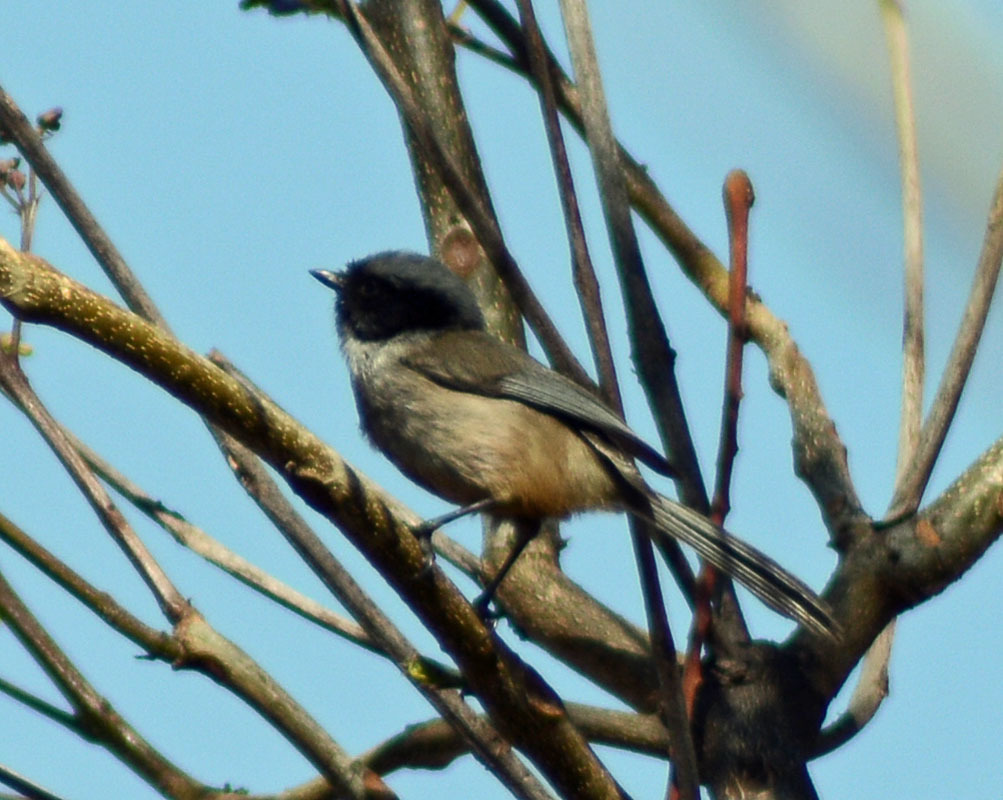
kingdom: Animalia
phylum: Chordata
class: Aves
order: Passeriformes
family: Aegithalidae
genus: Psaltriparus
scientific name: Psaltriparus minimus
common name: American bushtit
